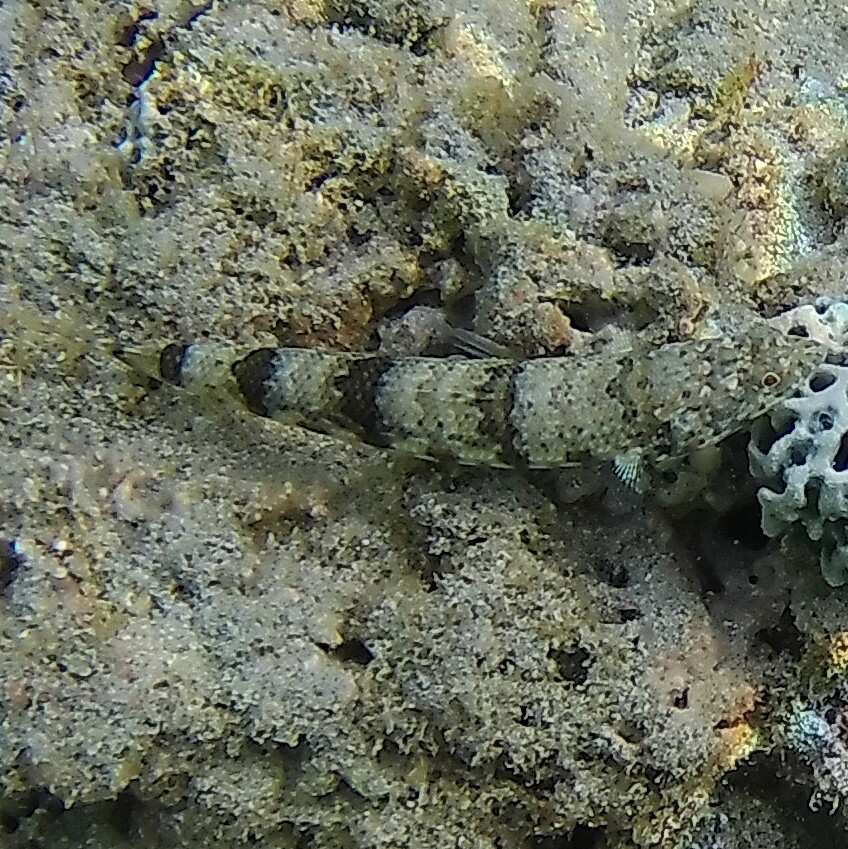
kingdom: Animalia
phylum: Chordata
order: Aulopiformes
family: Synodontidae
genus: Synodus
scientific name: Synodus dermatogenys
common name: Banded lizardfish
